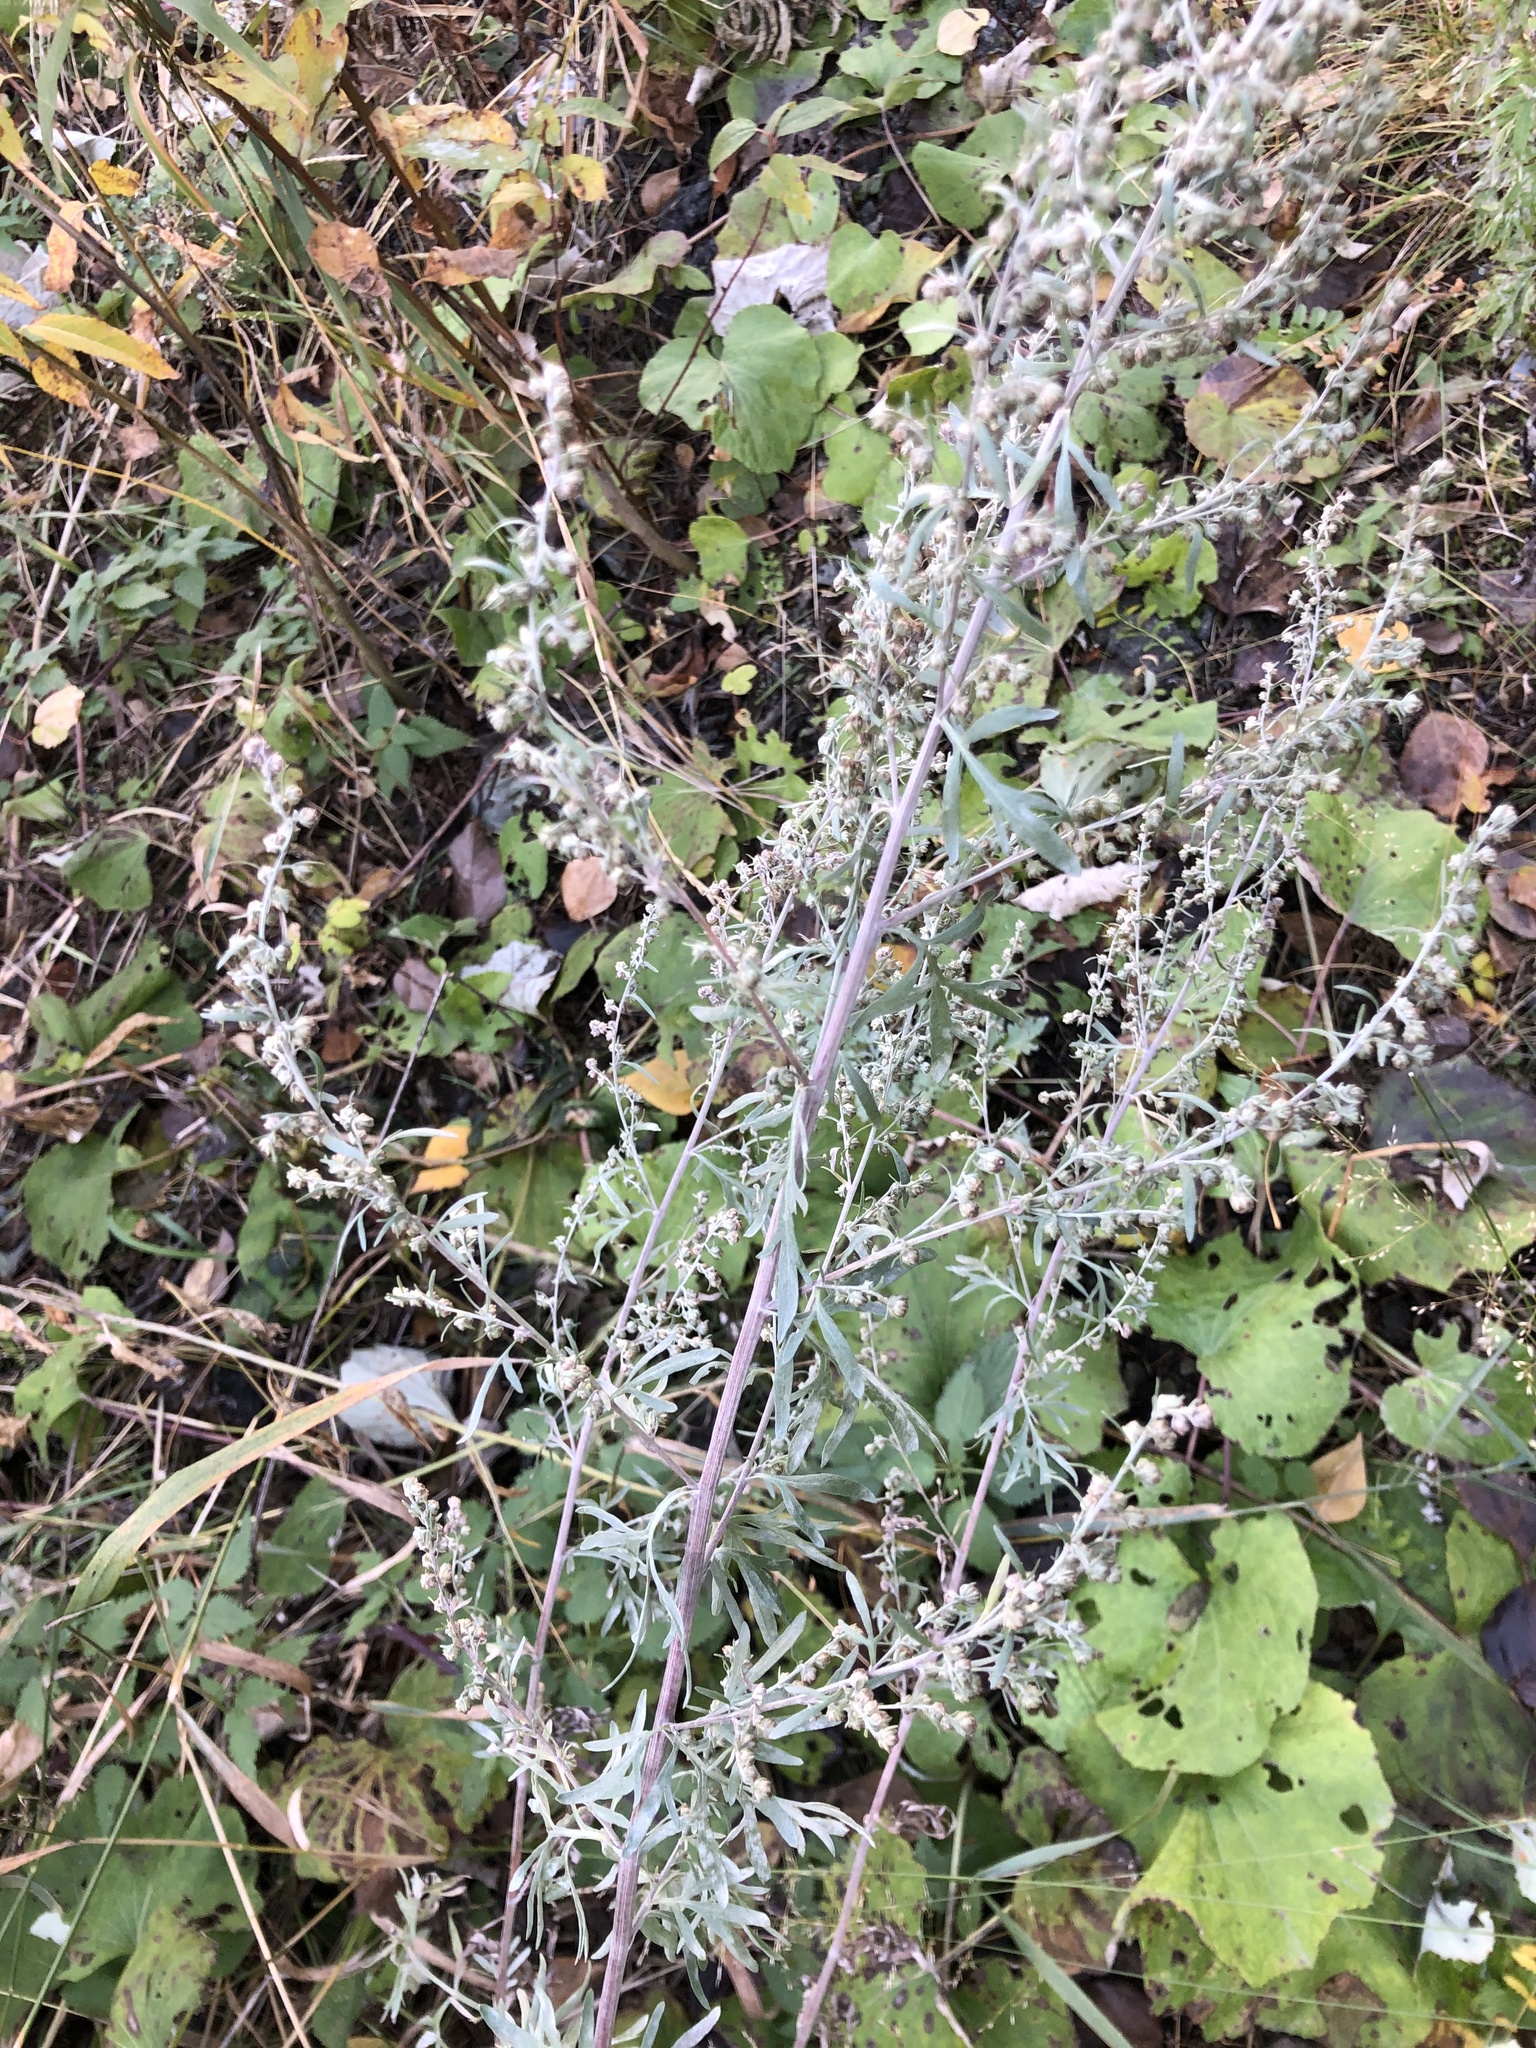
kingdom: Plantae
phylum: Tracheophyta
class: Magnoliopsida
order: Asterales
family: Asteraceae
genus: Artemisia
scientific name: Artemisia absinthium
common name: Wormwood
